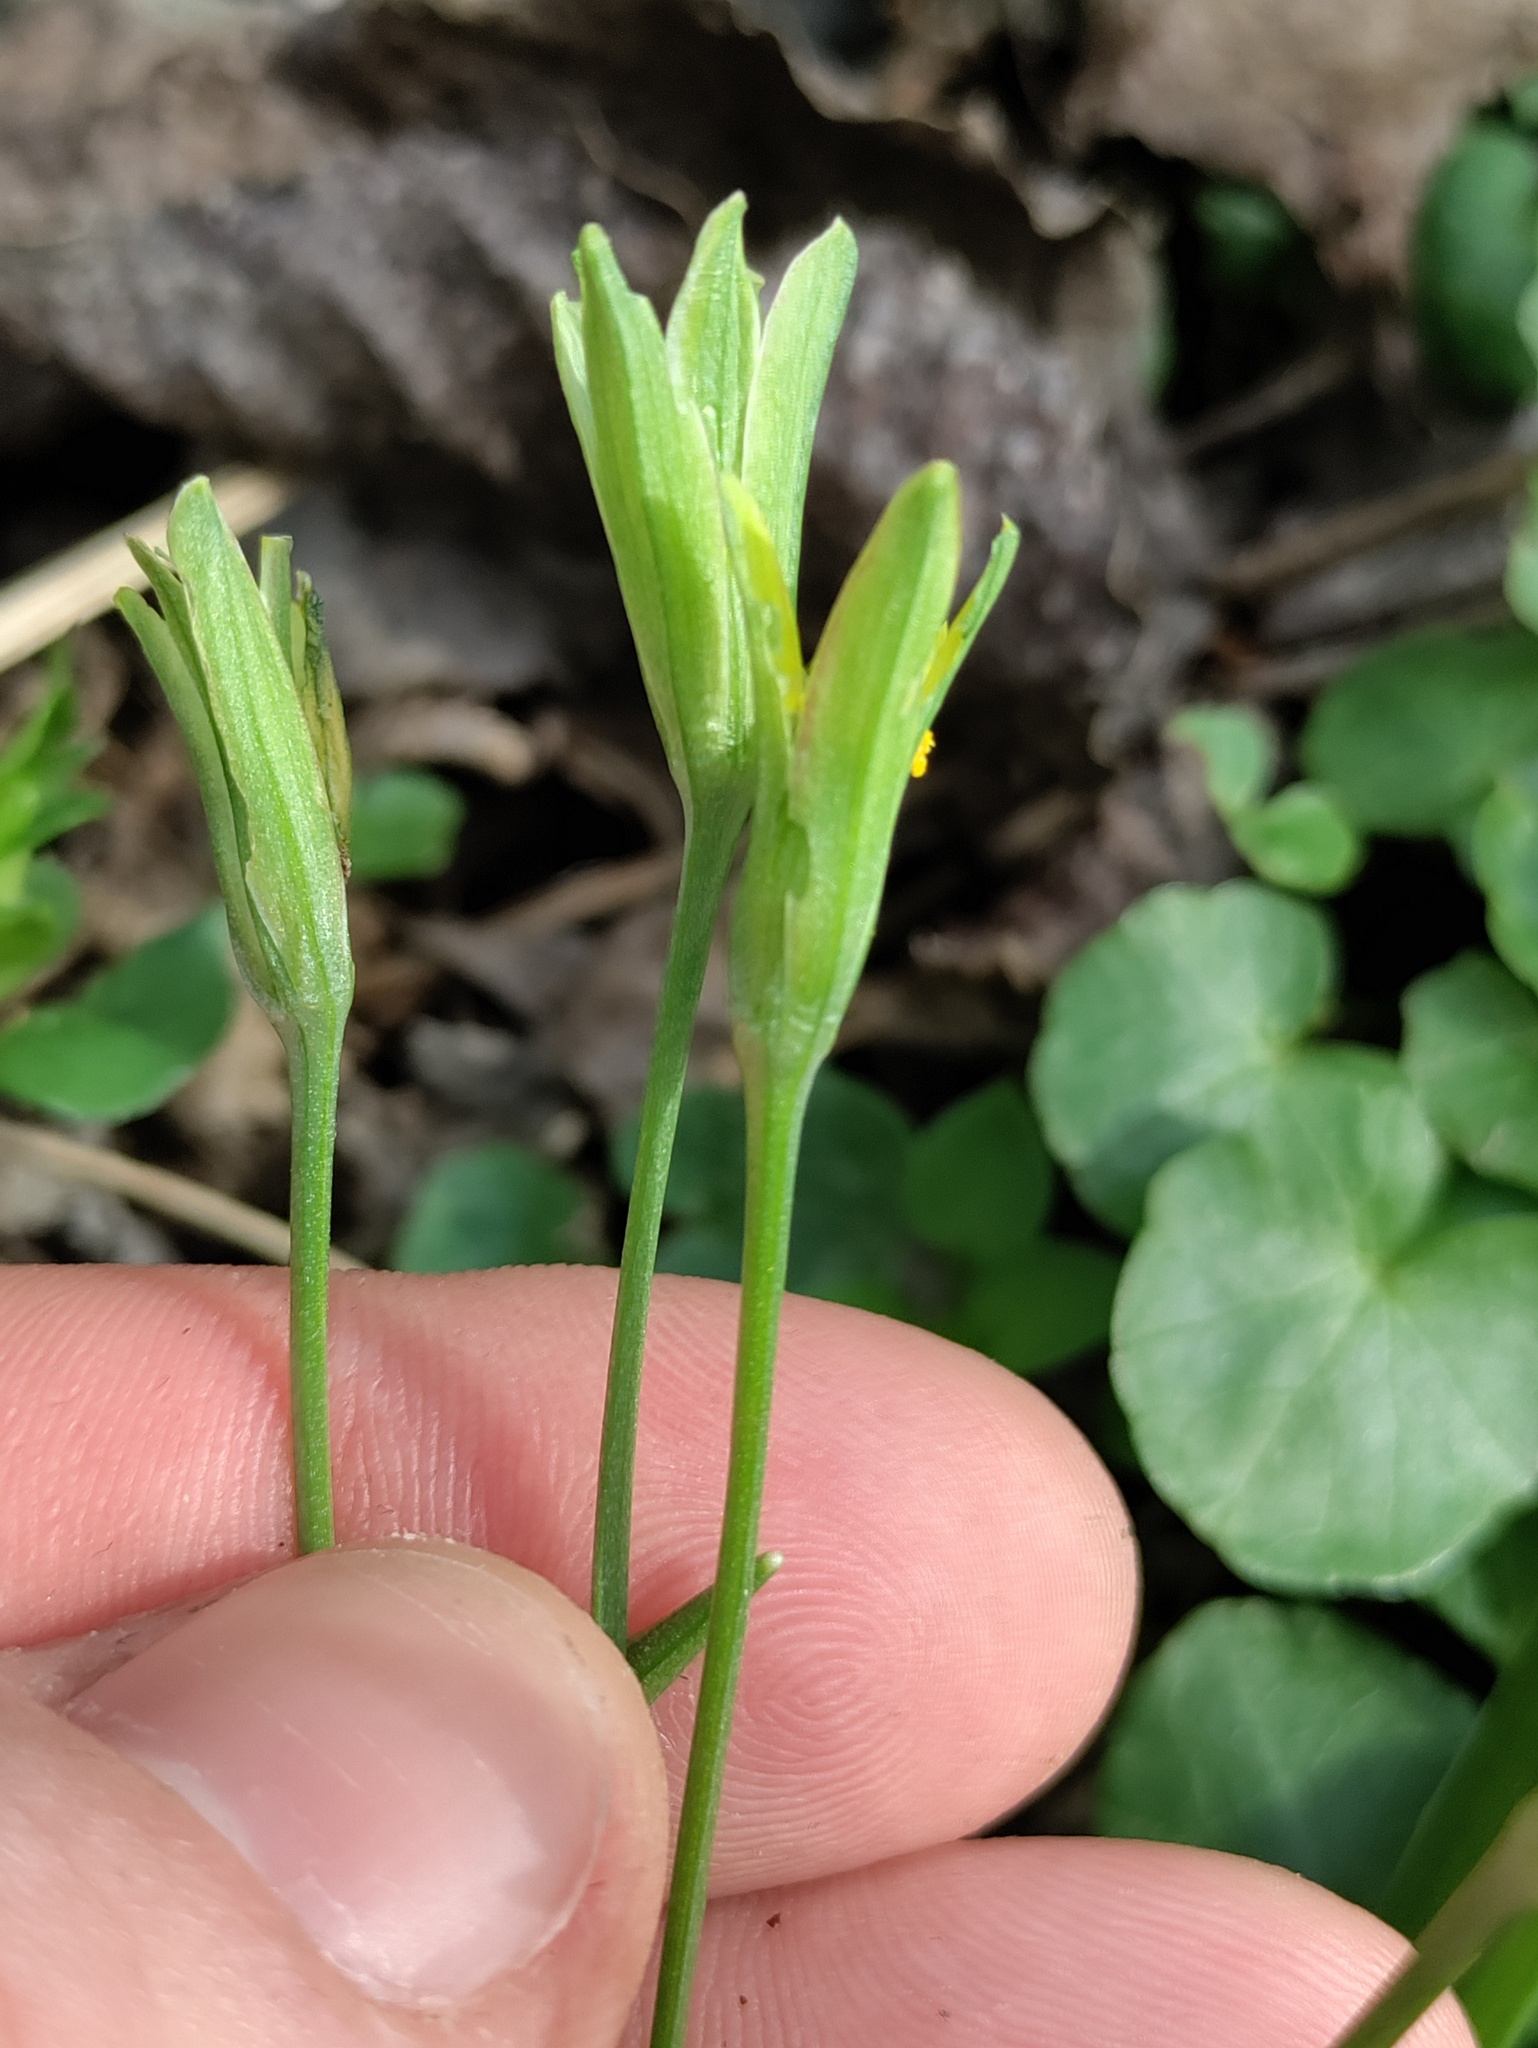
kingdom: Plantae
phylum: Tracheophyta
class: Liliopsida
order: Liliales
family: Liliaceae
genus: Gagea
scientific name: Gagea lutea
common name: Yellow star-of-bethlehem
